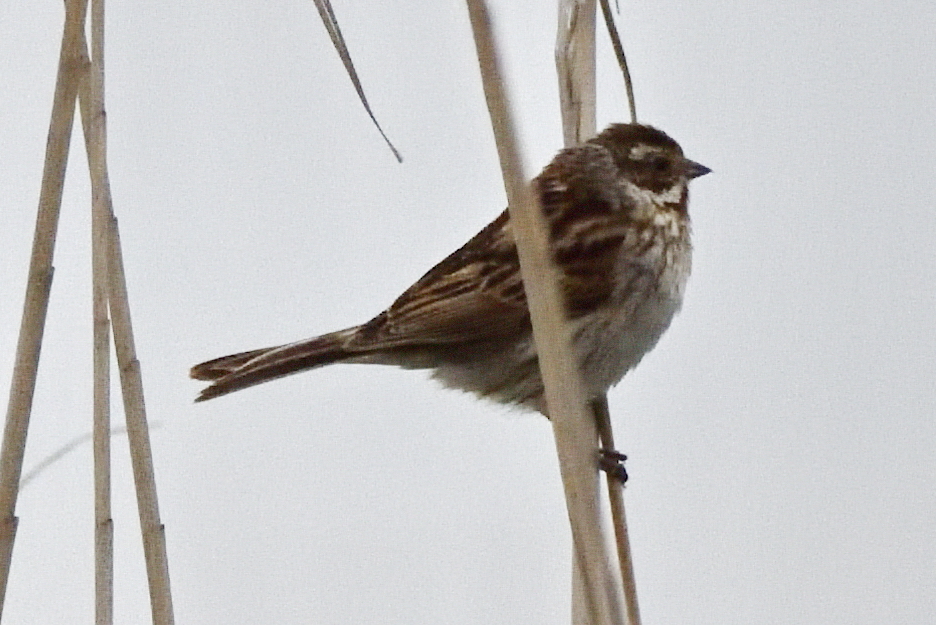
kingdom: Animalia
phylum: Chordata
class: Aves
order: Passeriformes
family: Emberizidae
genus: Emberiza
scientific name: Emberiza schoeniclus
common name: Reed bunting
